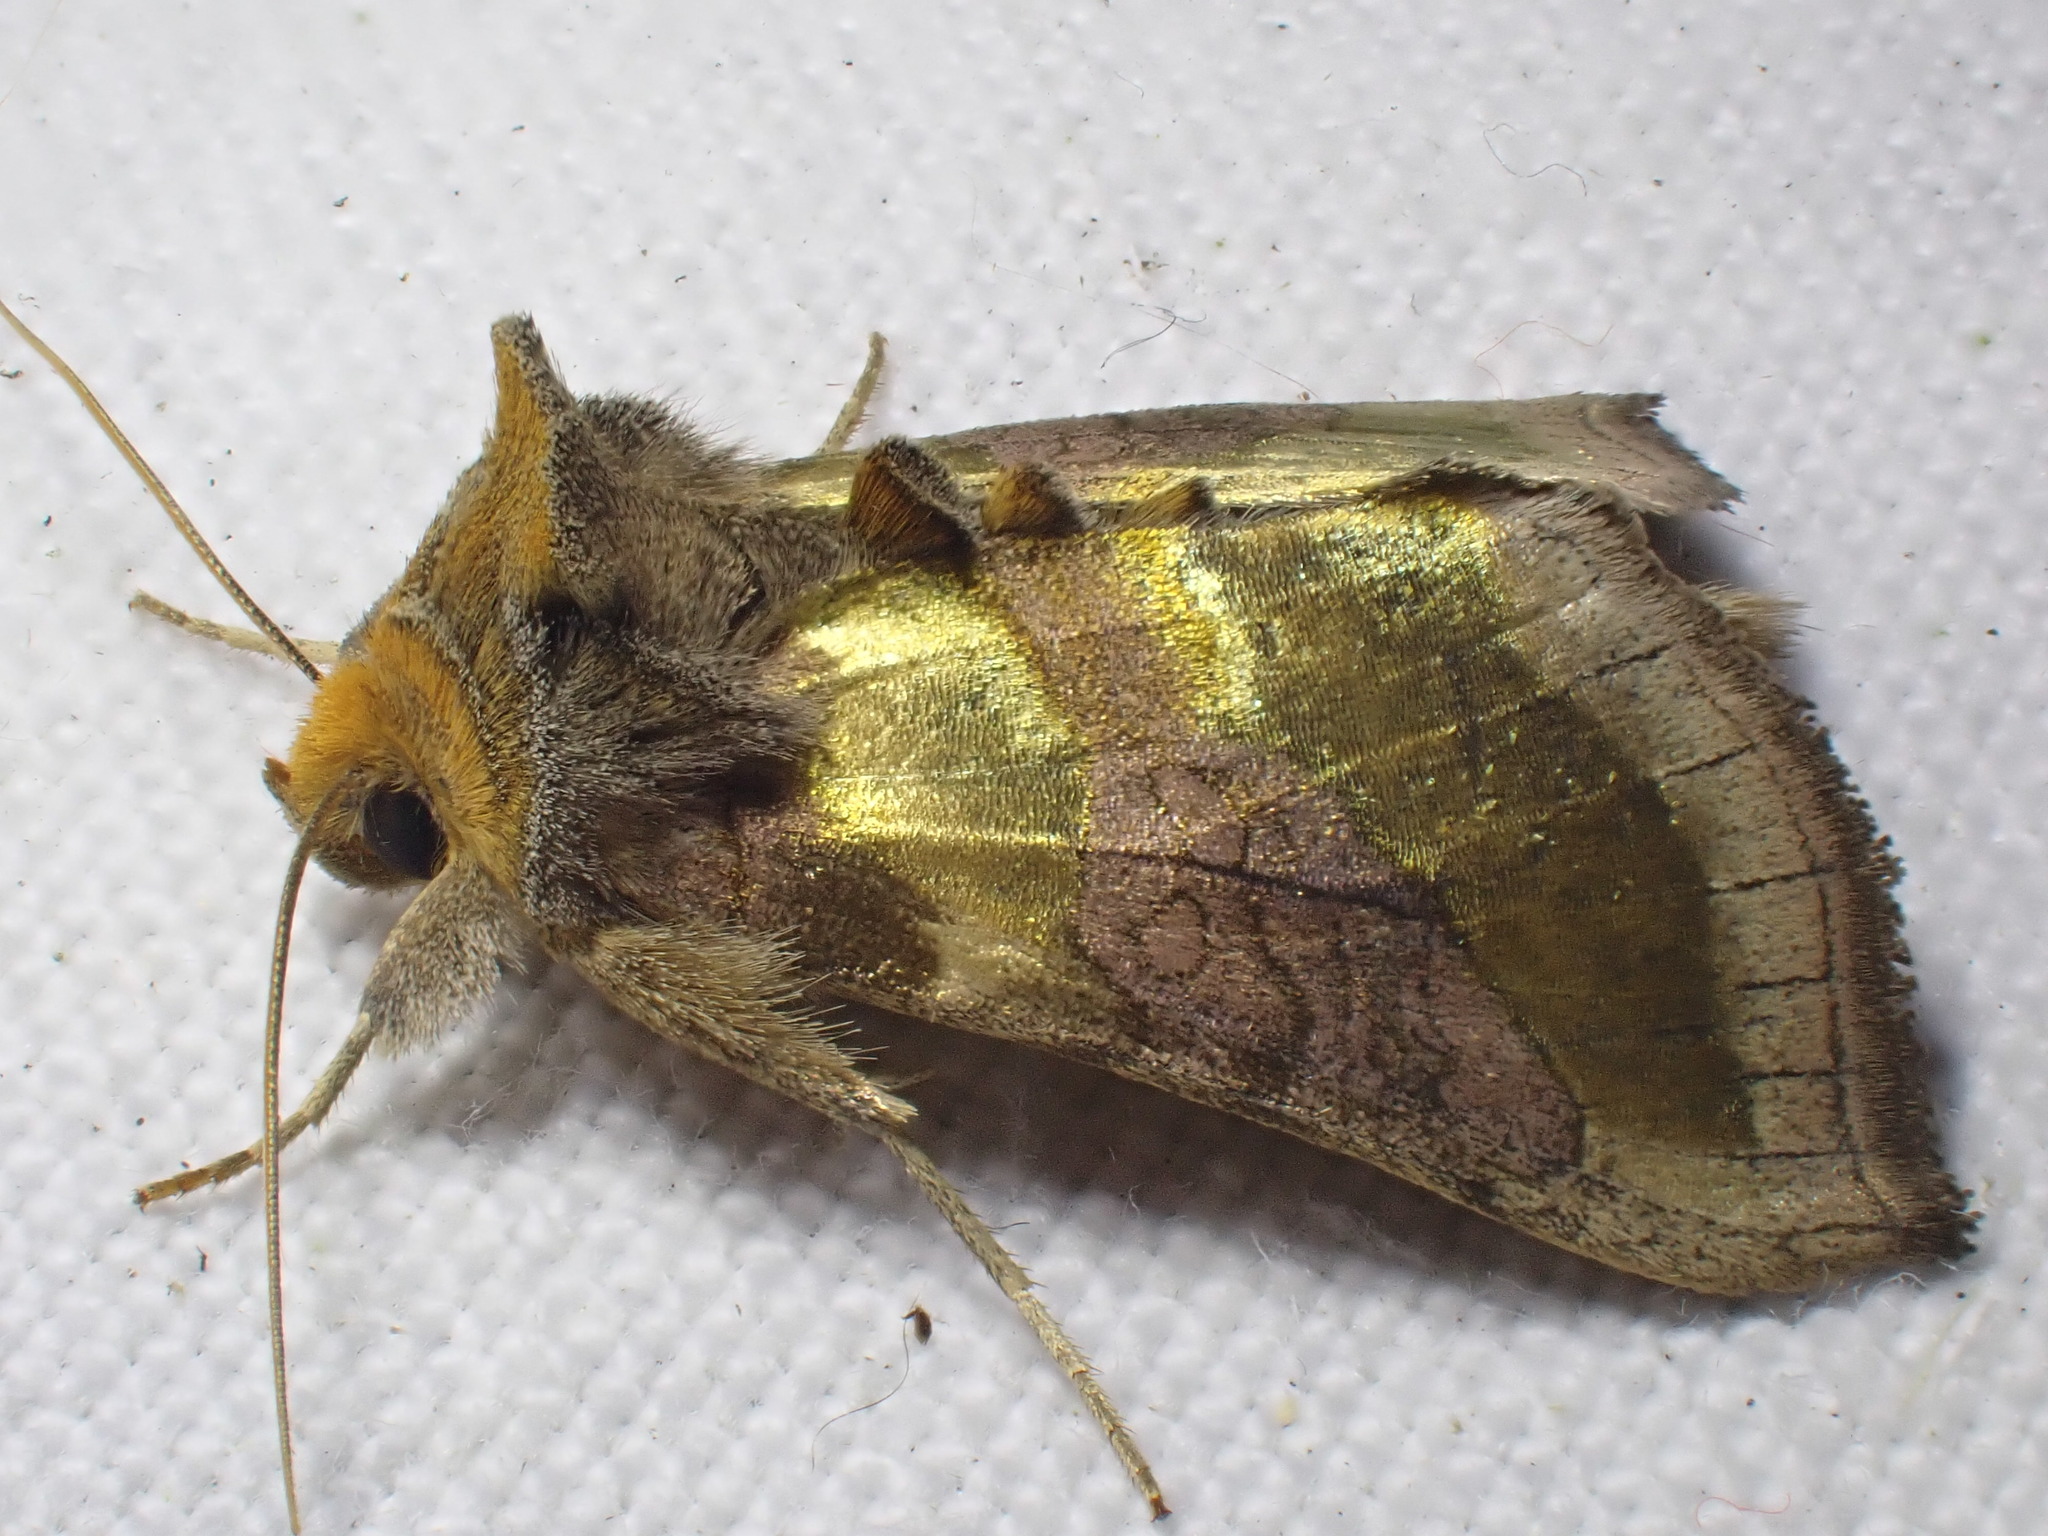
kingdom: Animalia
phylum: Arthropoda
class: Insecta
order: Lepidoptera
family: Noctuidae
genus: Diachrysia
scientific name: Diachrysia chrysitis
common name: Burnished brass
